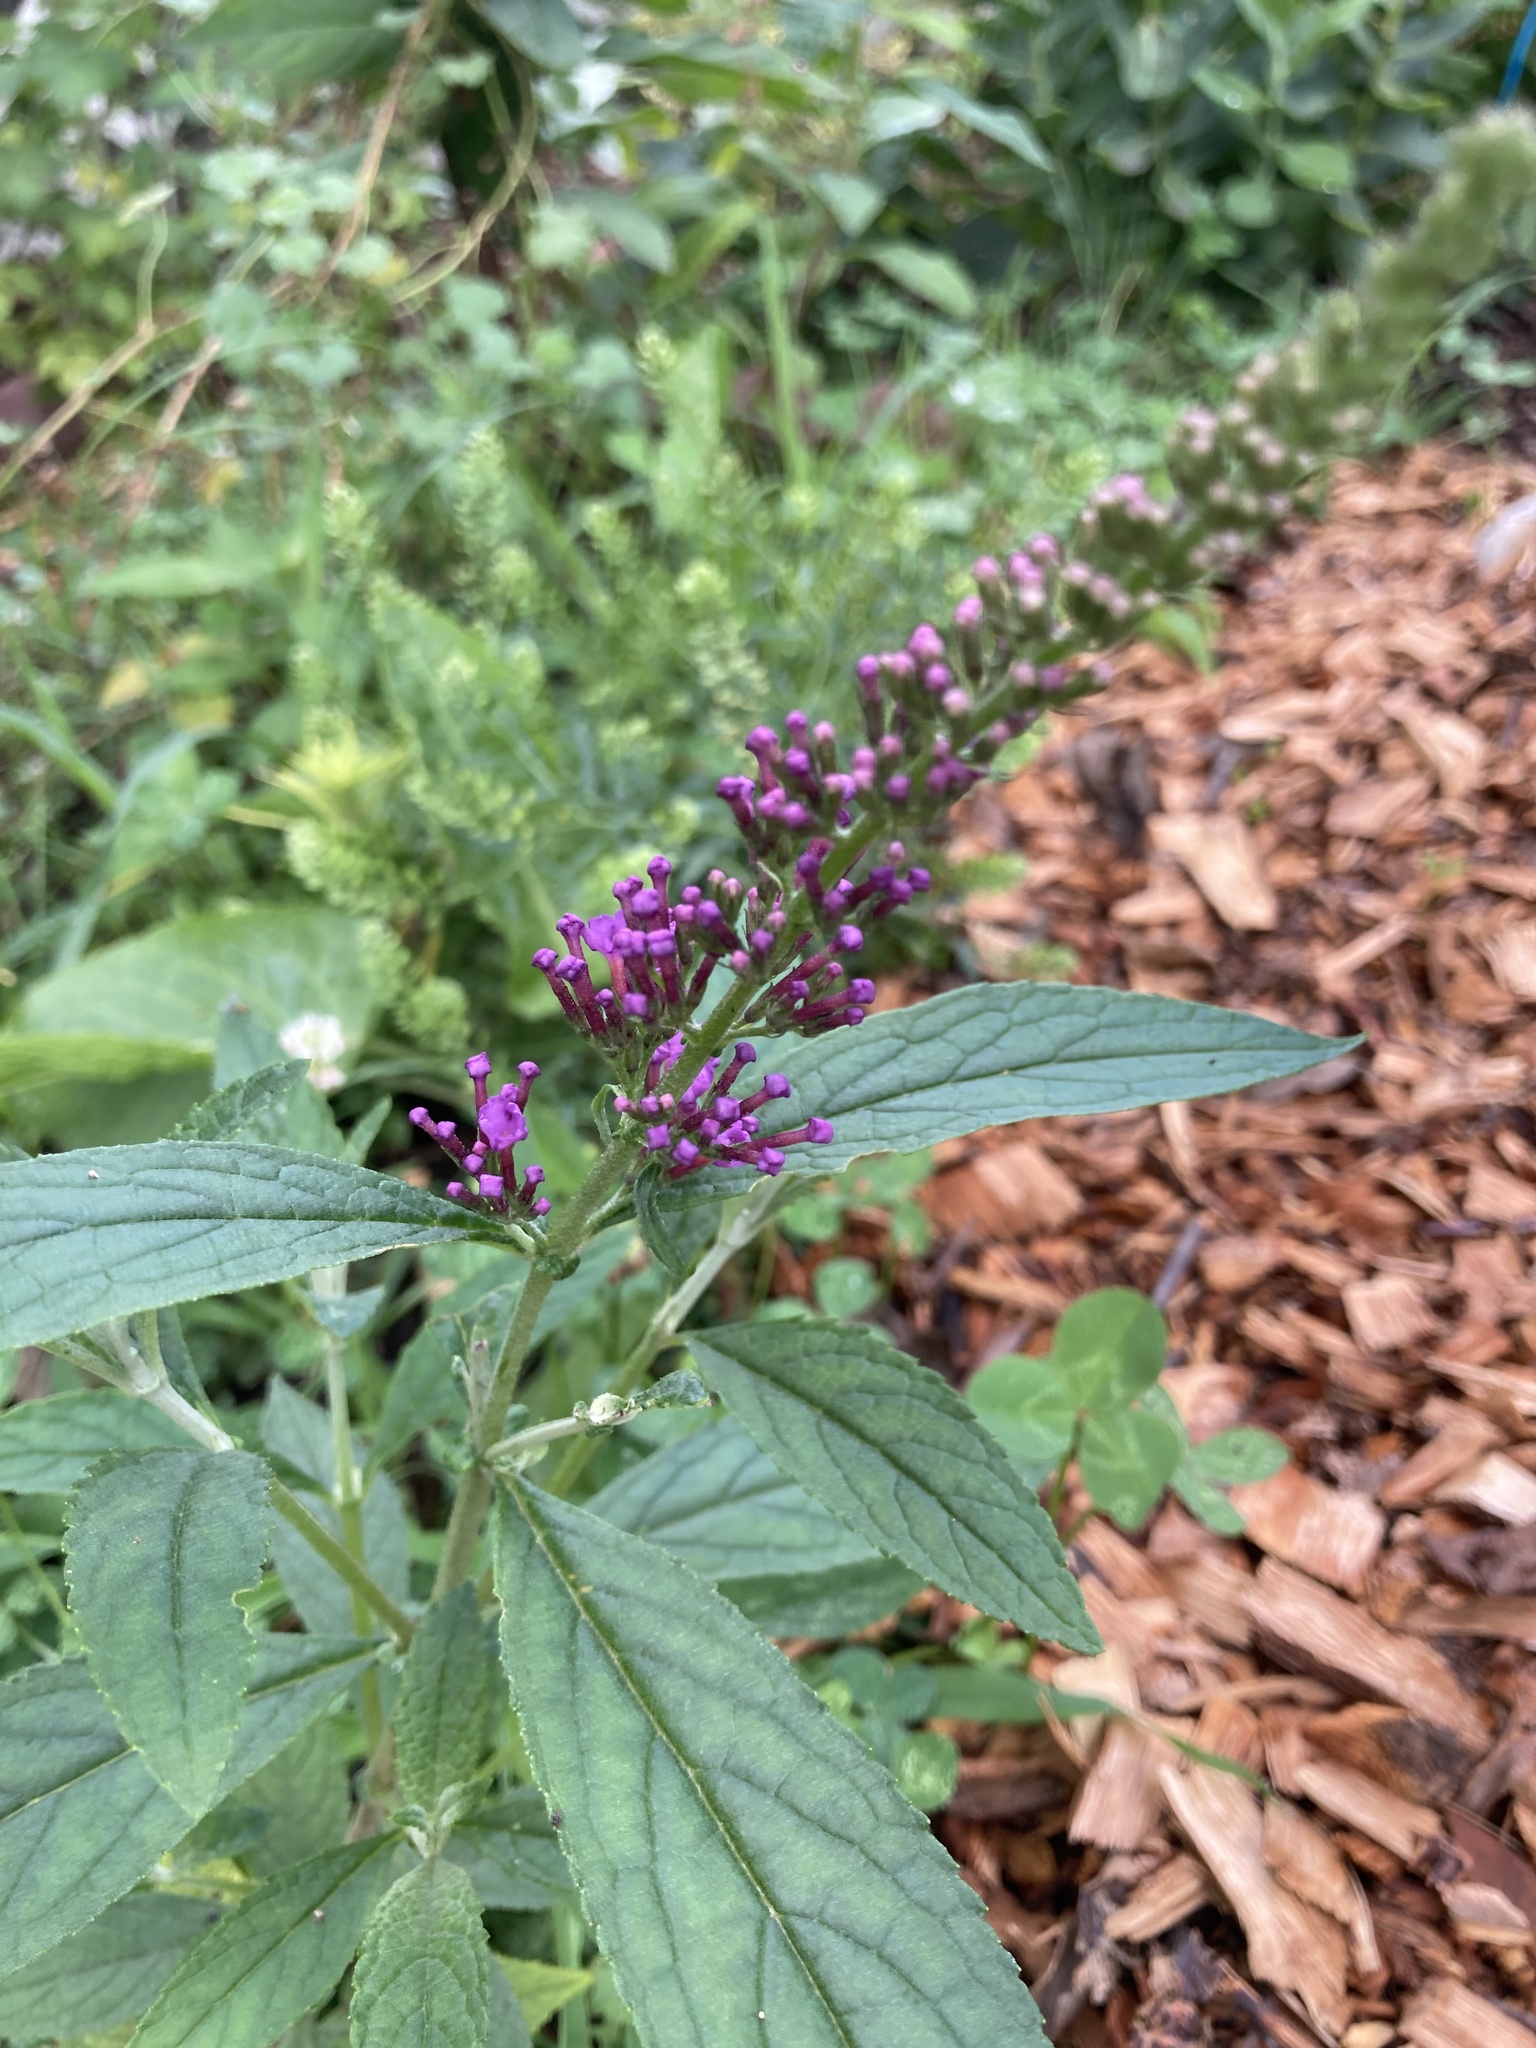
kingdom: Plantae
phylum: Tracheophyta
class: Magnoliopsida
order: Lamiales
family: Scrophulariaceae
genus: Buddleja
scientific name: Buddleja davidii
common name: Butterfly-bush
